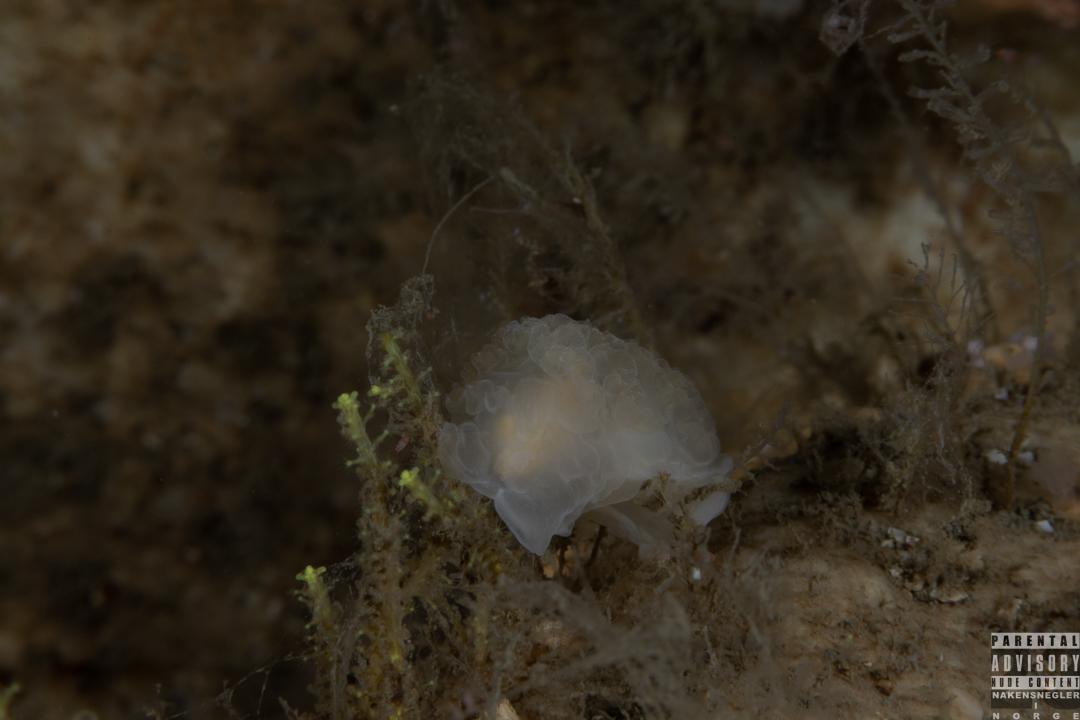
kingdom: Animalia
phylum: Mollusca
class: Gastropoda
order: Nudibranchia
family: Lomanotidae
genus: Lomanotus
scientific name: Lomanotus genei
